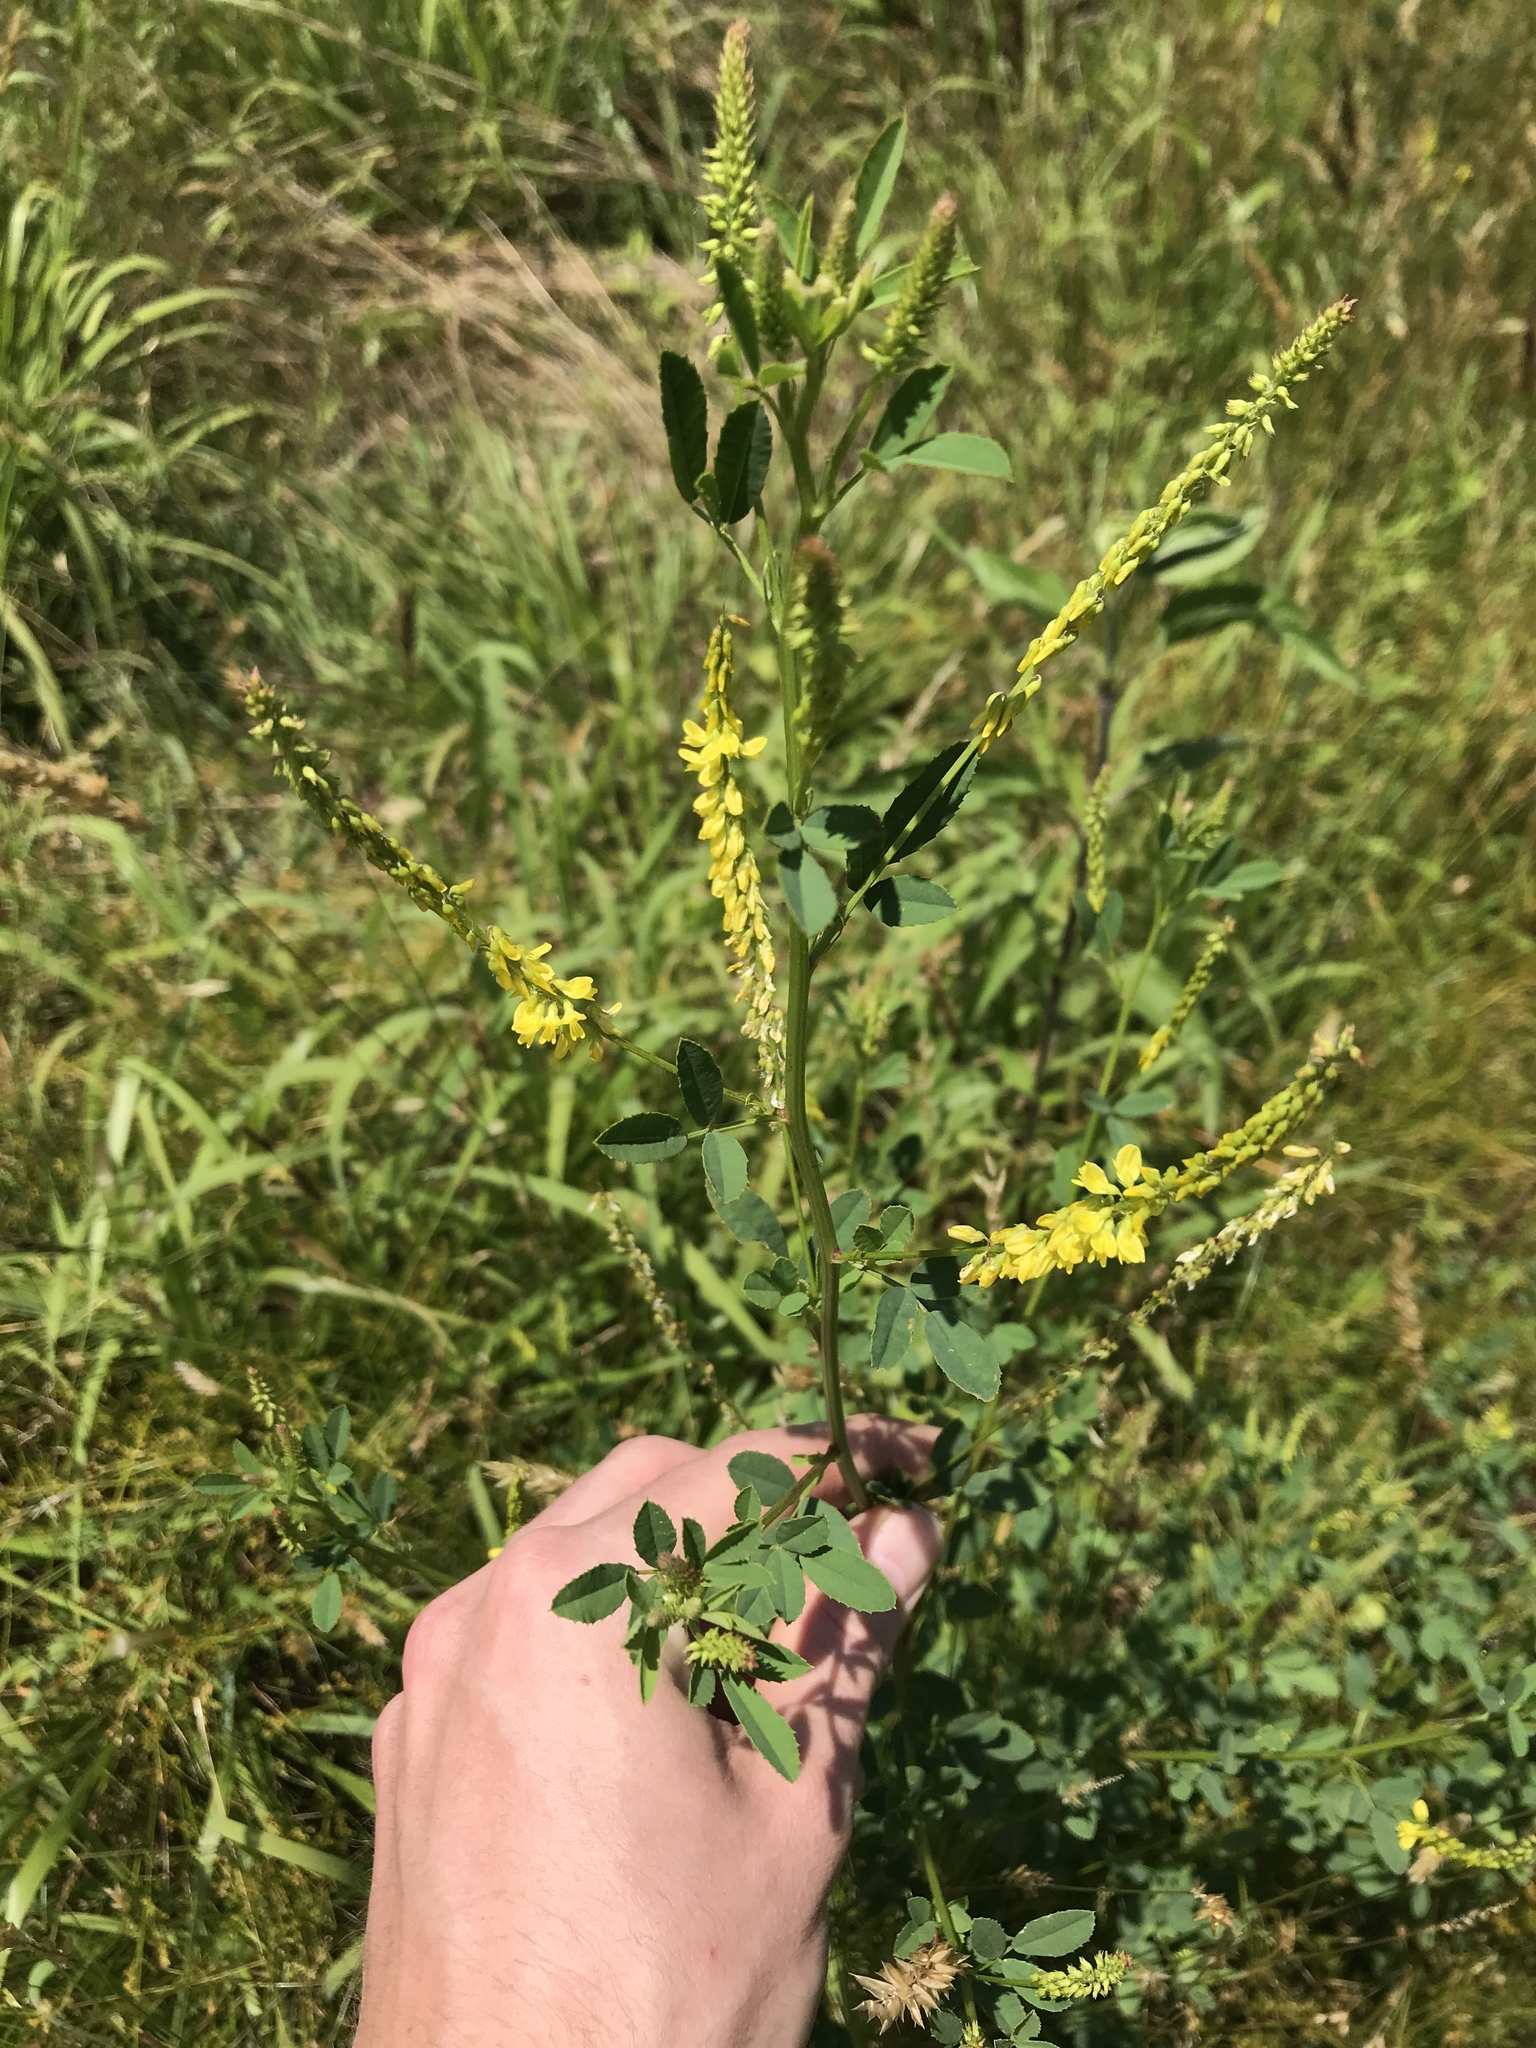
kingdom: Plantae
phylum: Tracheophyta
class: Magnoliopsida
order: Fabales
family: Fabaceae
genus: Melilotus
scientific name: Melilotus officinalis
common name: Sweetclover
